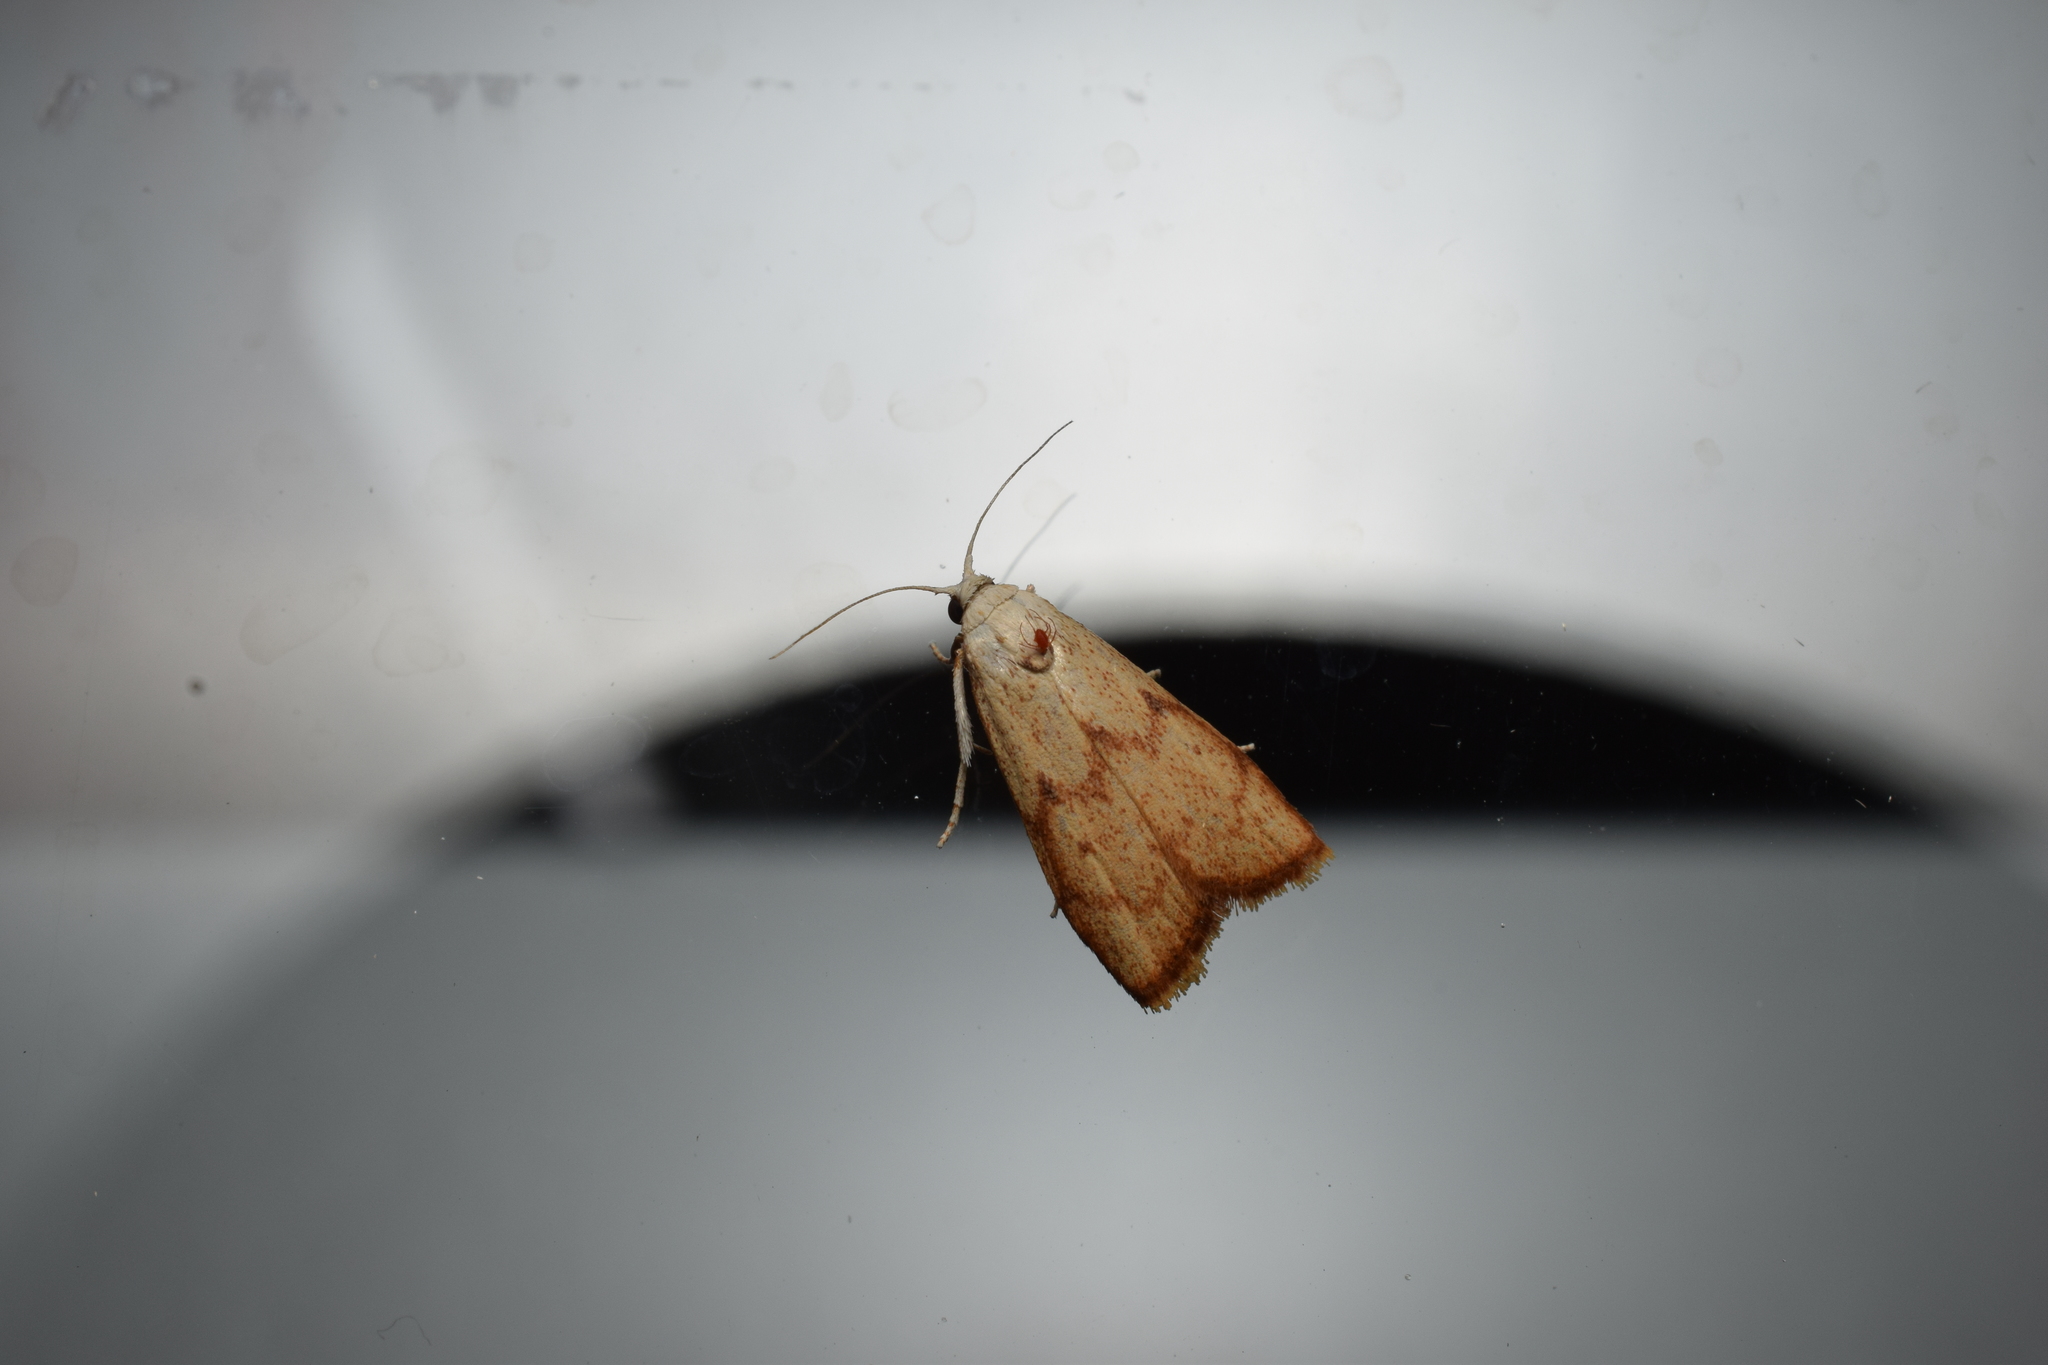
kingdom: Animalia
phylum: Arthropoda
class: Insecta
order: Lepidoptera
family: Pyralidae
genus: Tirathaba
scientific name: Tirathaba irrufatella
